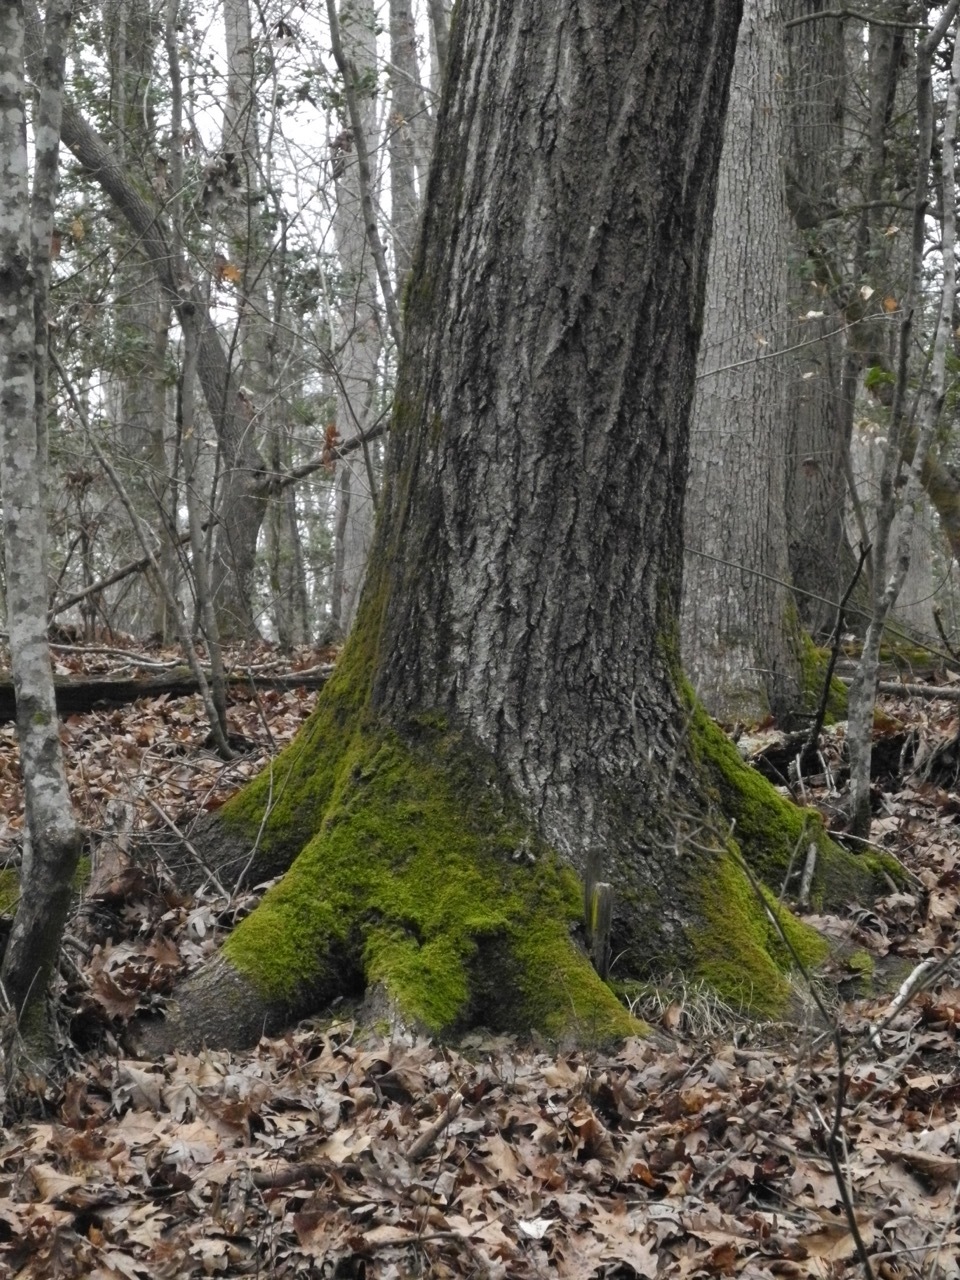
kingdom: Plantae
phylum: Tracheophyta
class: Magnoliopsida
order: Fagales
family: Fagaceae
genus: Quercus
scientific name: Quercus rubra
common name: Red oak
